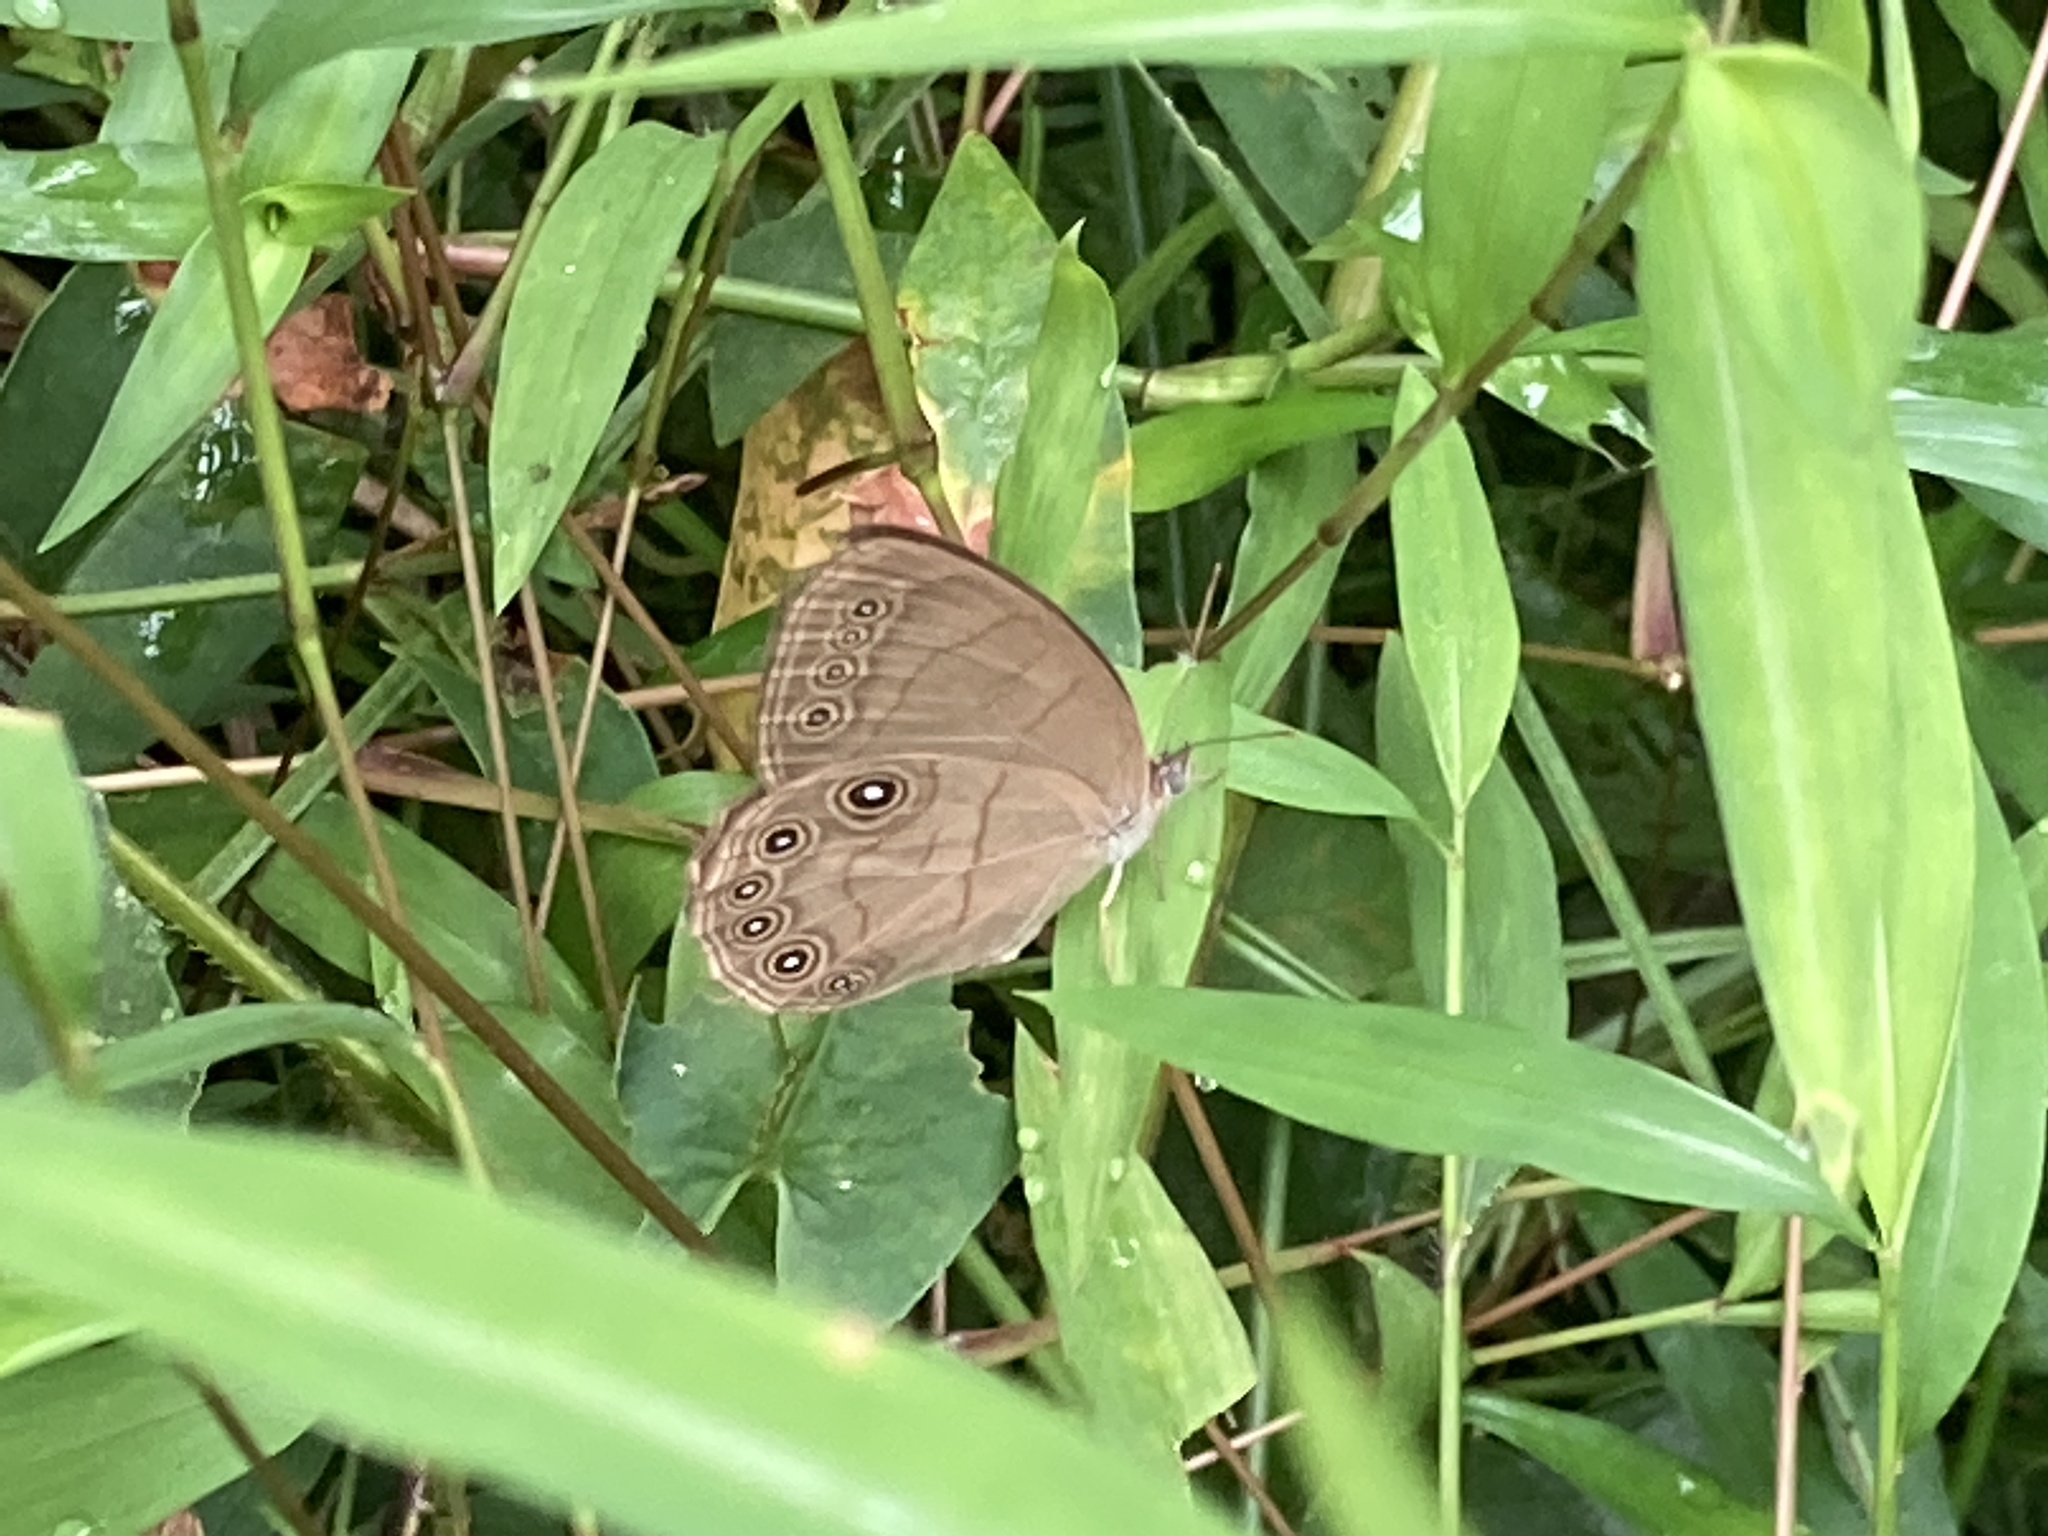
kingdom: Animalia
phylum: Arthropoda
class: Insecta
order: Lepidoptera
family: Nymphalidae
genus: Lethe
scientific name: Lethe eurydice
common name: Eyed brown
